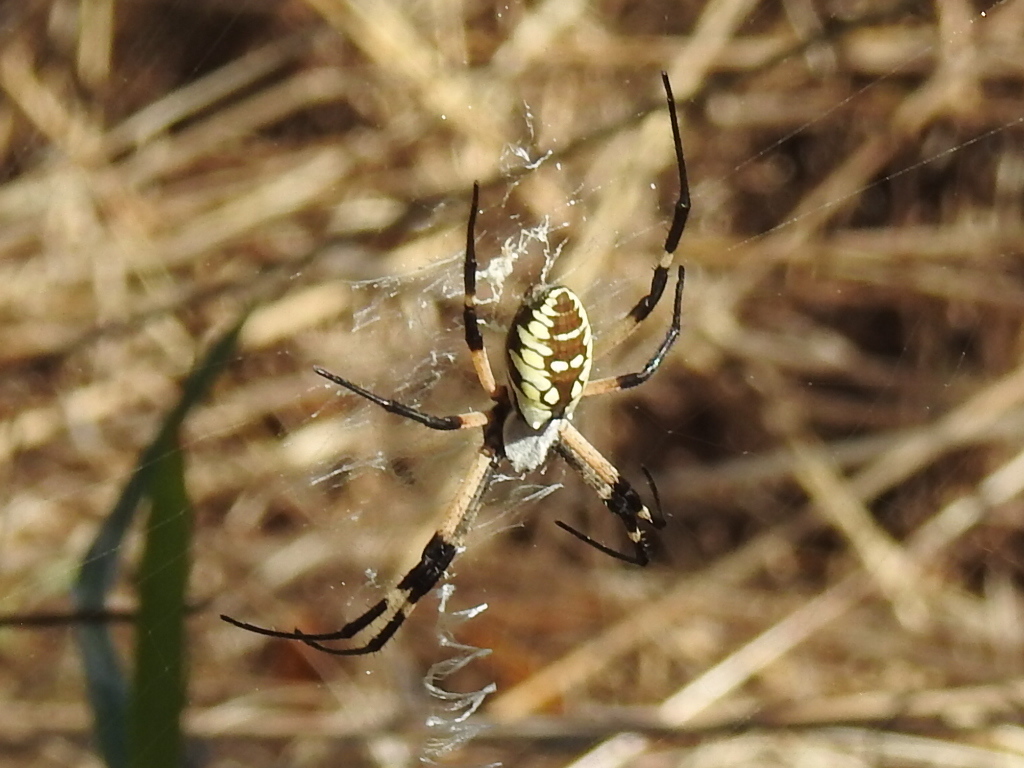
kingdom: Animalia
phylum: Arthropoda
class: Arachnida
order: Araneae
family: Araneidae
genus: Argiope
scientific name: Argiope aurantia
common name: Orb weavers
